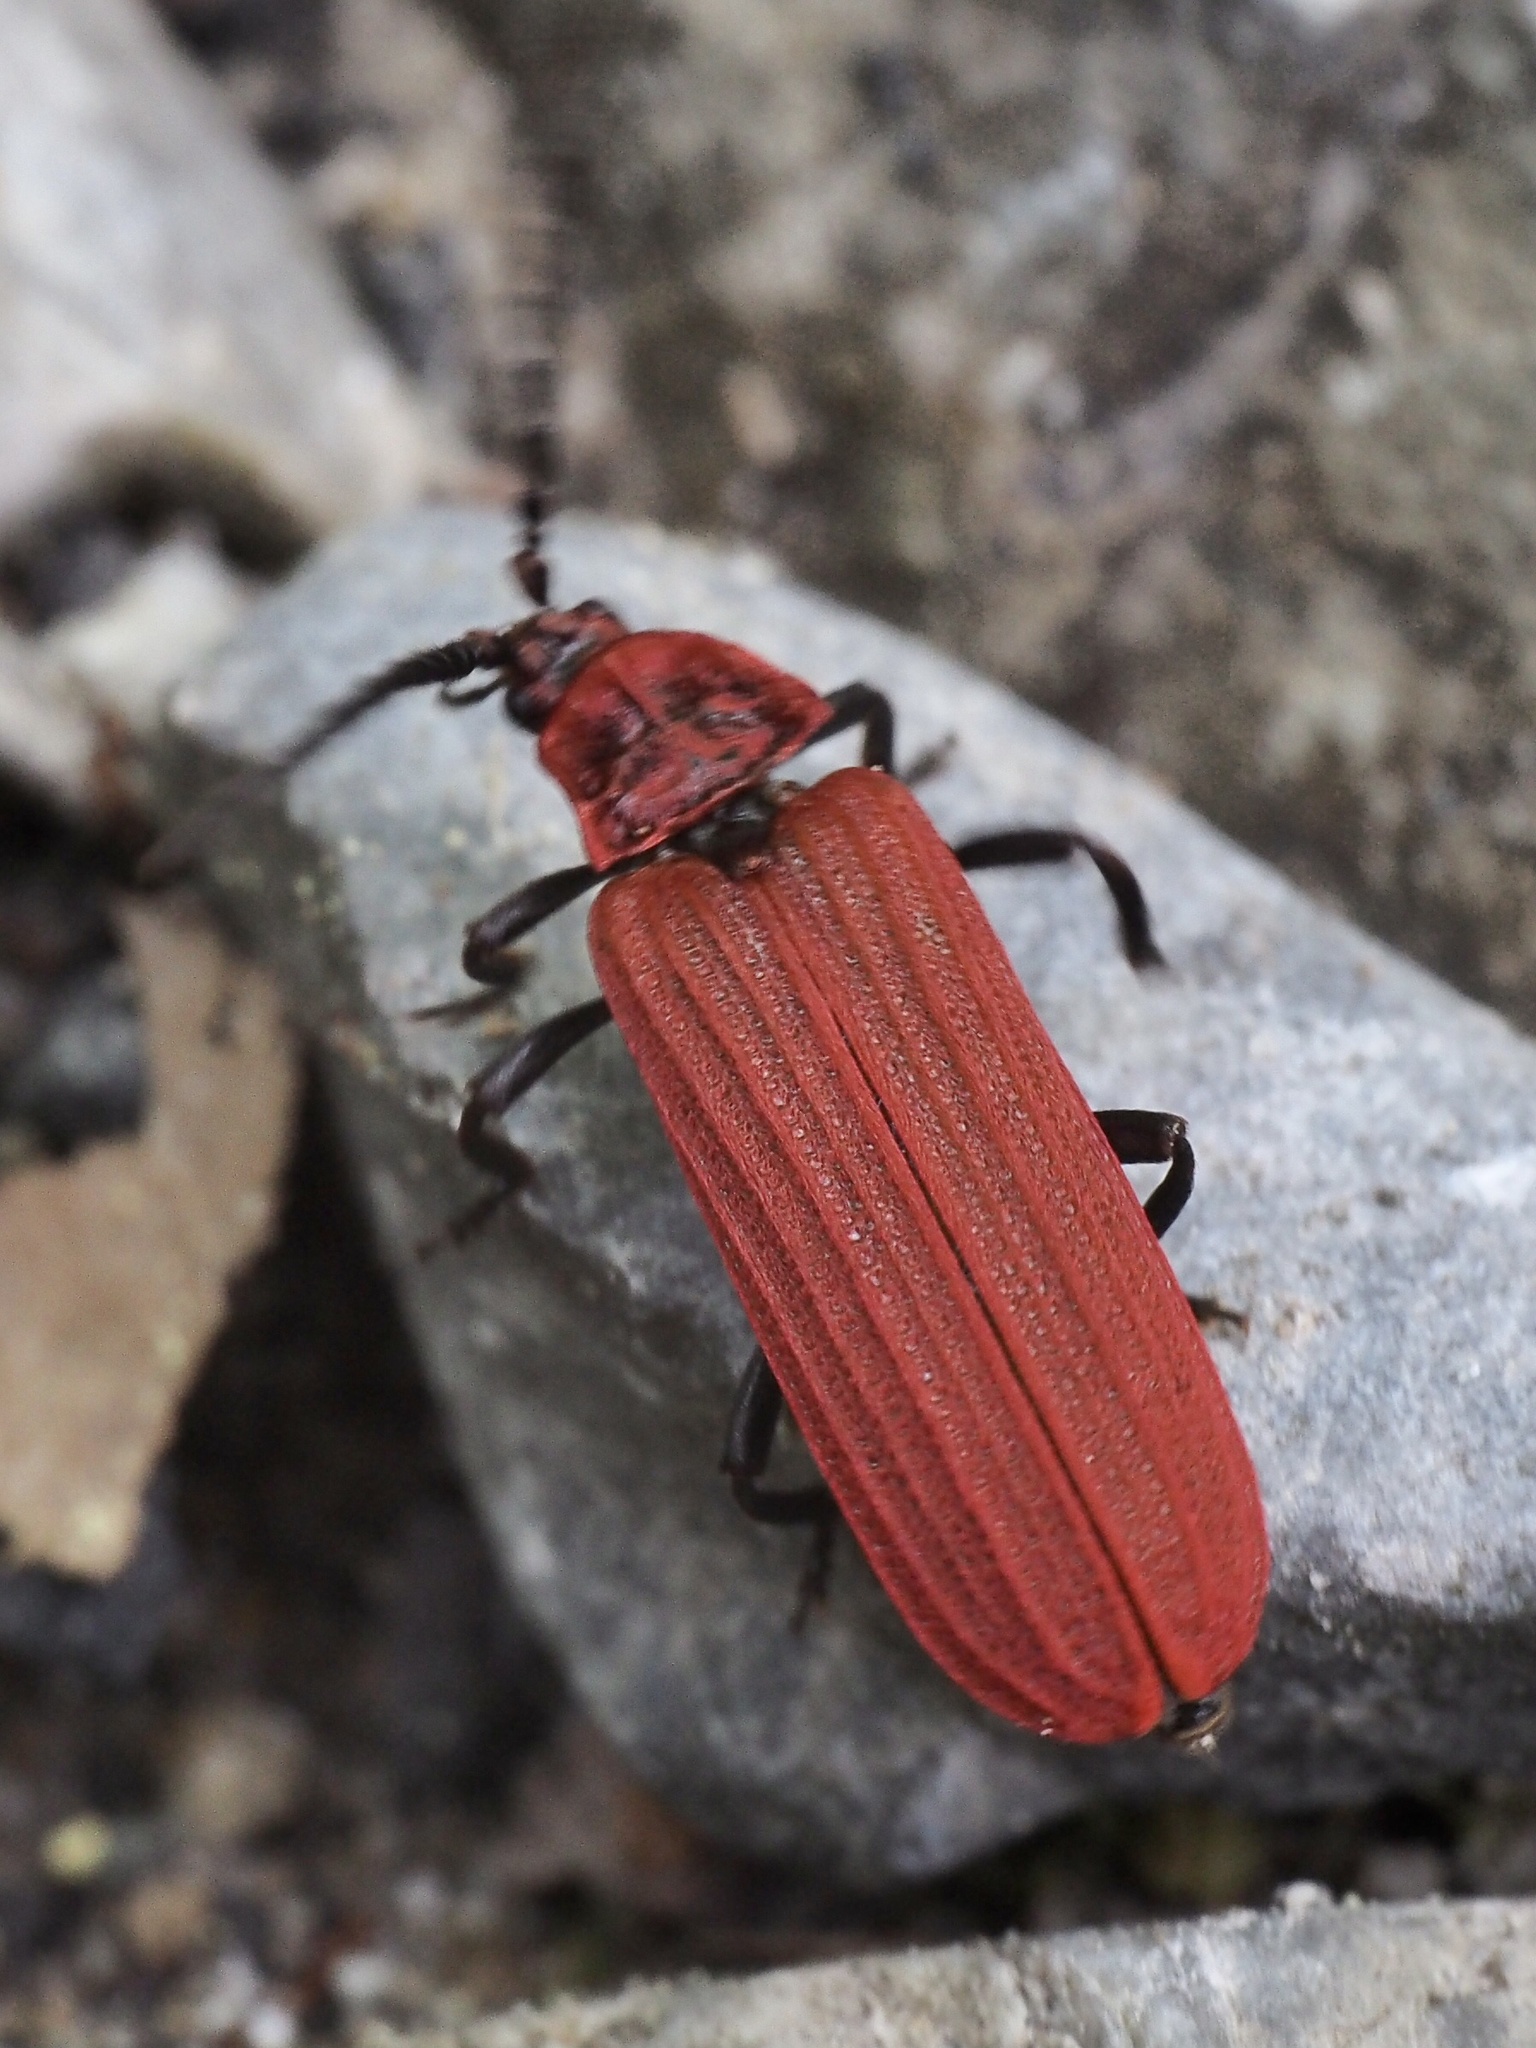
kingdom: Animalia
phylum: Arthropoda
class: Insecta
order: Coleoptera
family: Lycidae
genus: Lopheros
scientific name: Lopheros rubens
